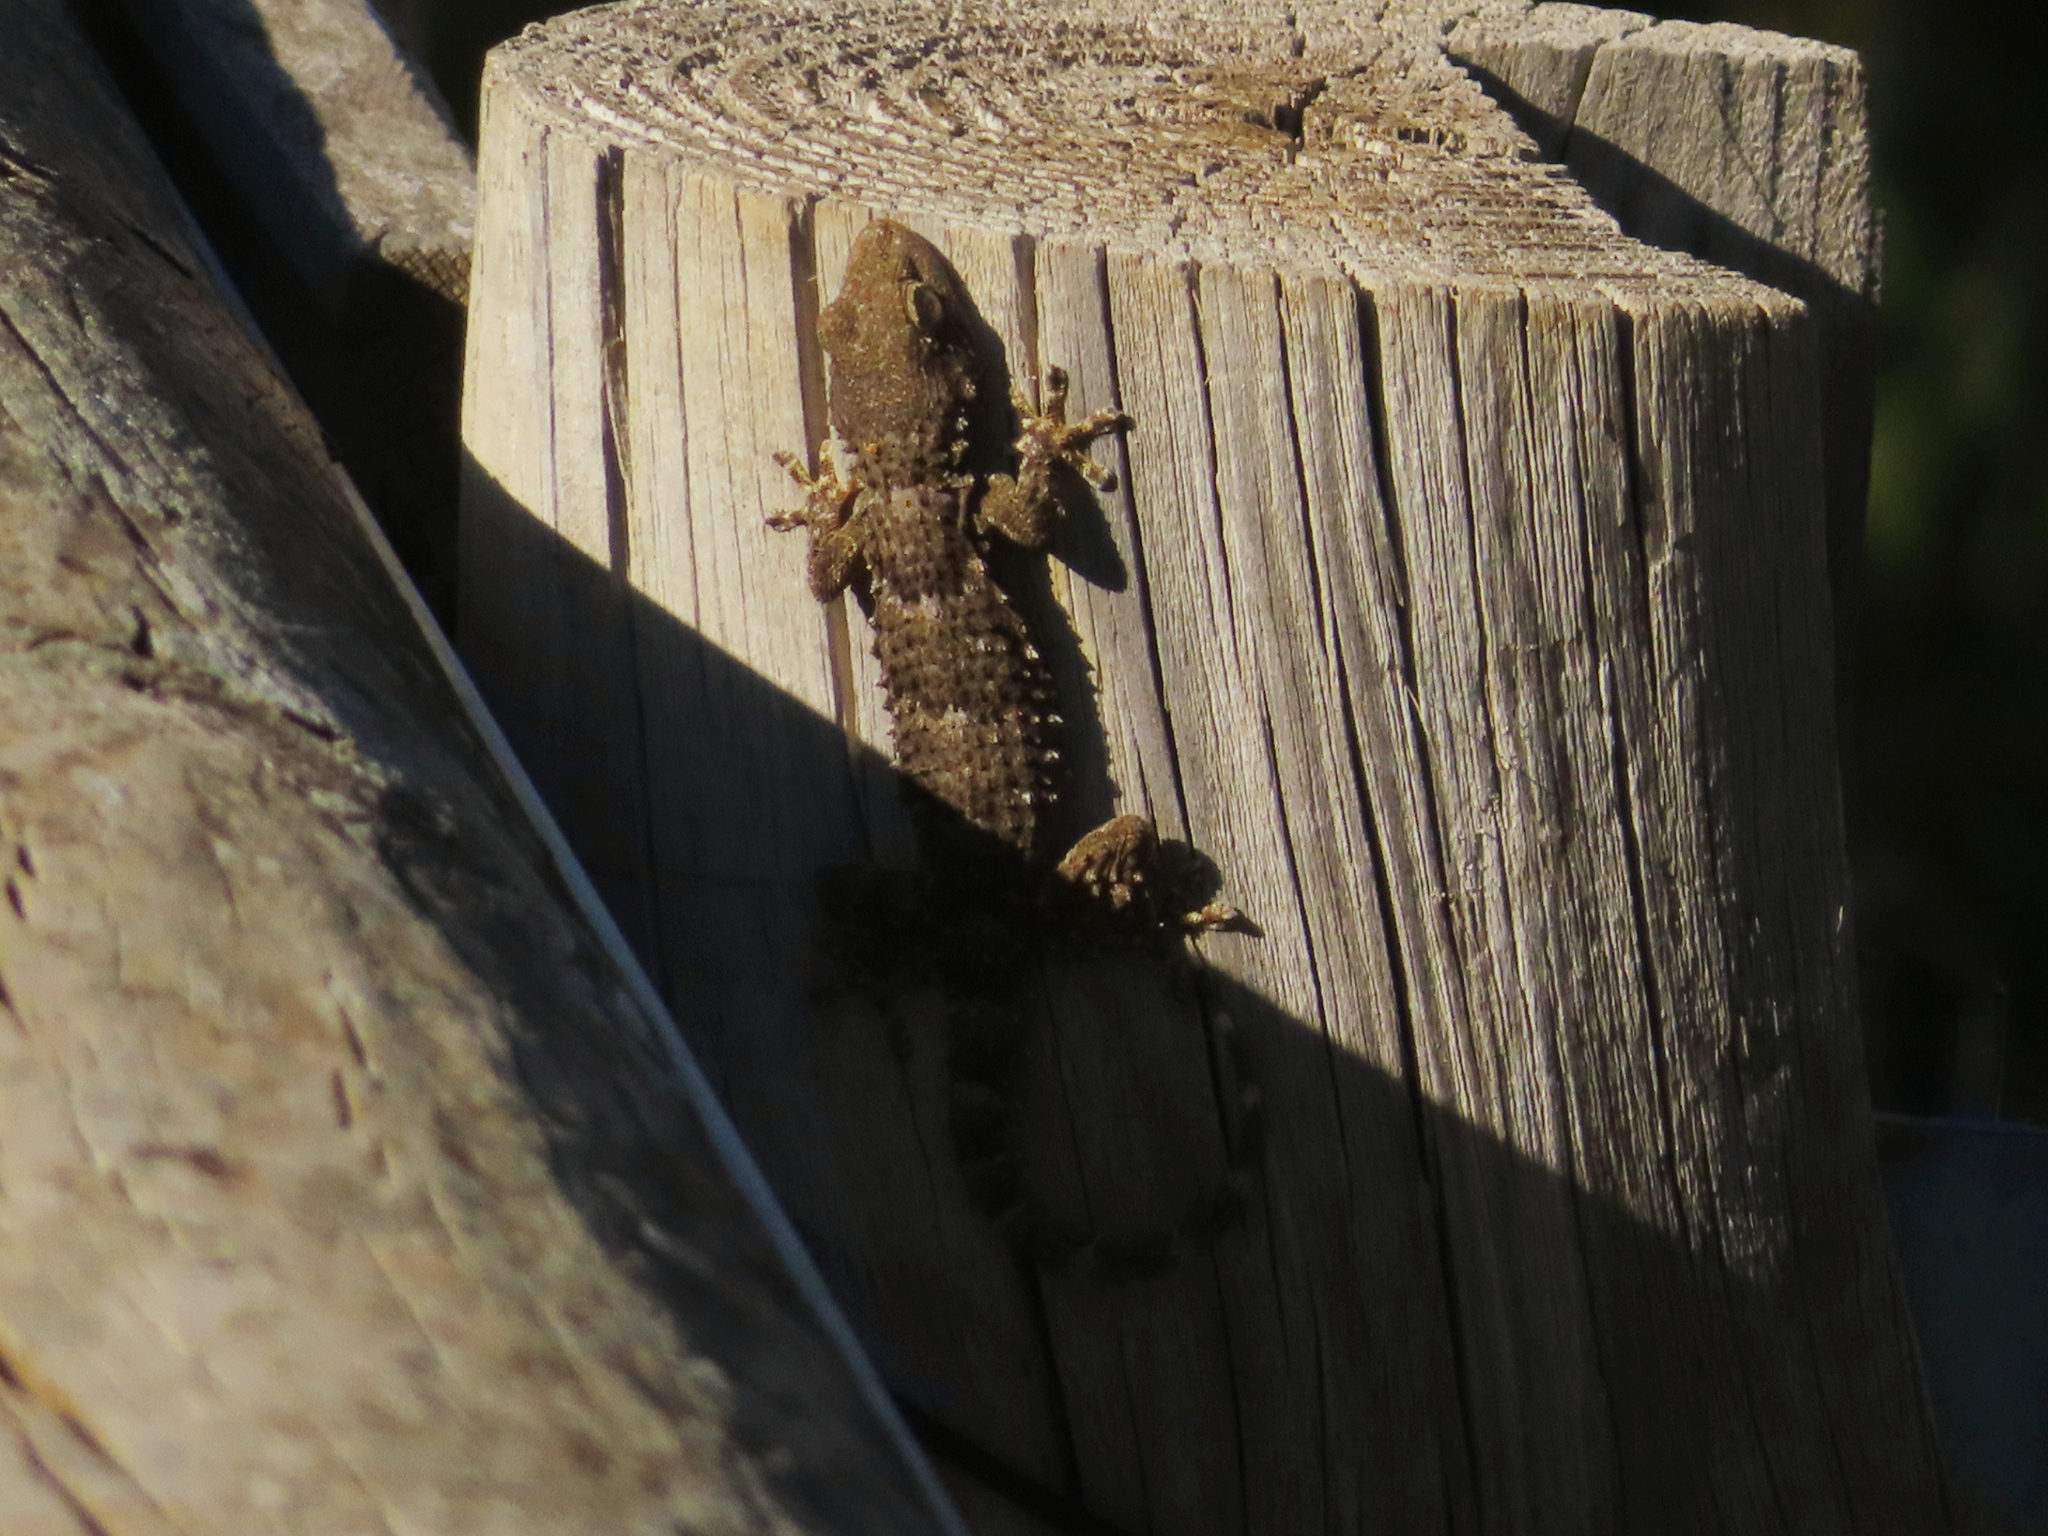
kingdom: Animalia
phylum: Chordata
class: Squamata
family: Phyllodactylidae
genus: Tarentola
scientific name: Tarentola mauritanica
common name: Moorish gecko
